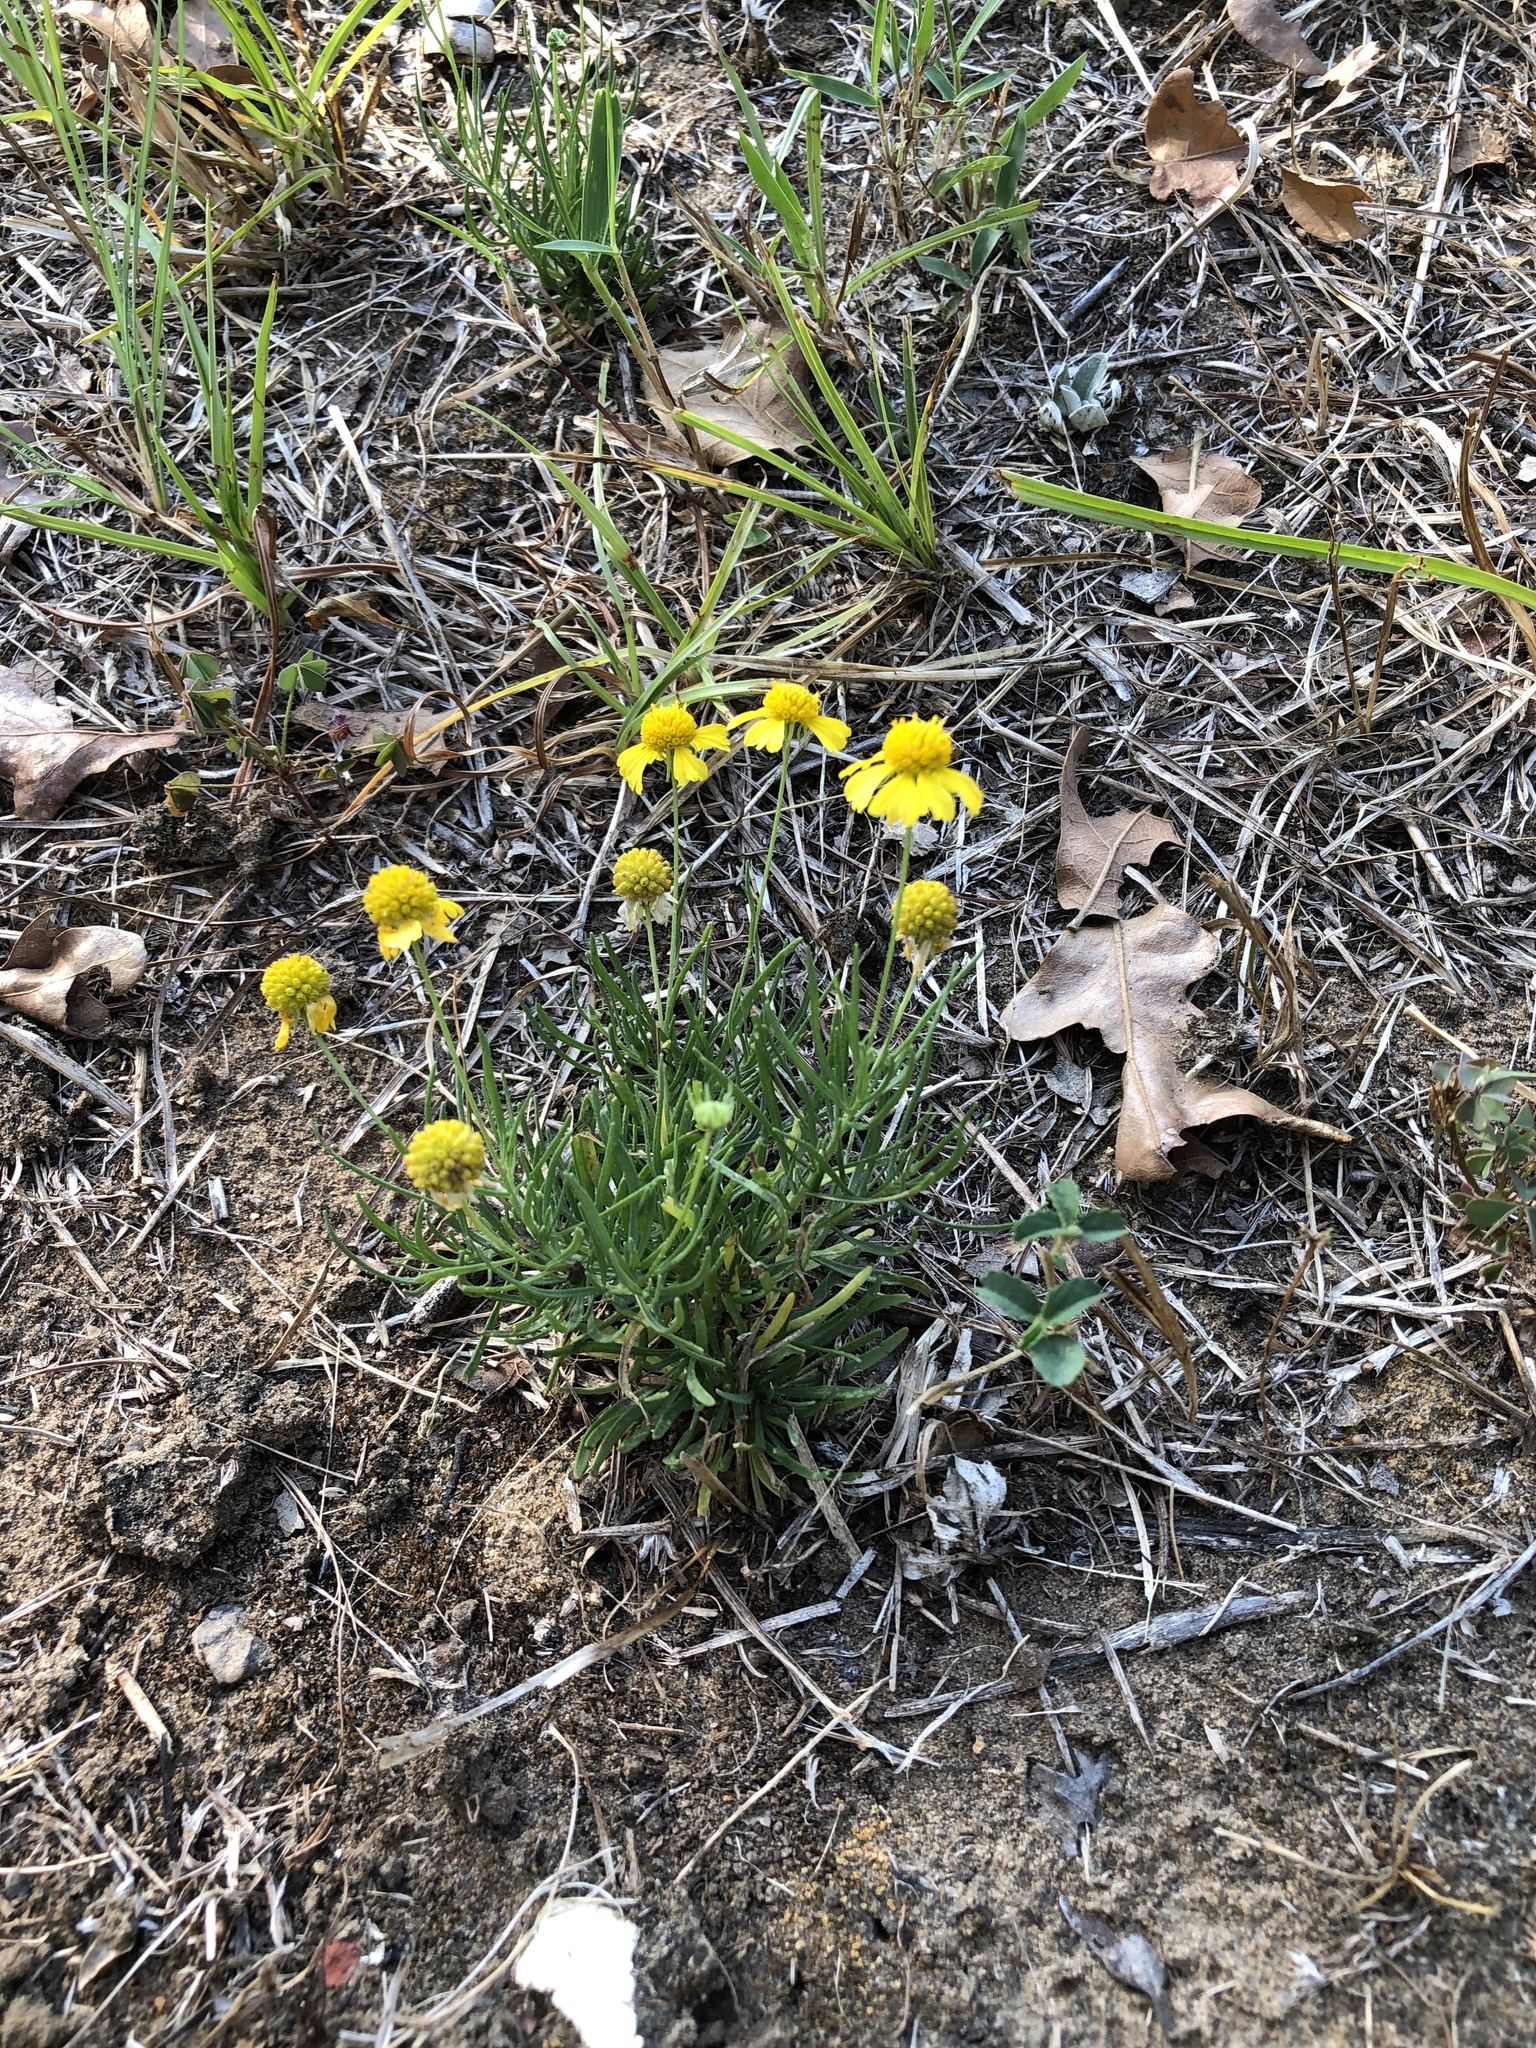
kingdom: Plantae
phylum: Tracheophyta
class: Magnoliopsida
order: Asterales
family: Asteraceae
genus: Helenium
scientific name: Helenium amarum
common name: Bitter sneezeweed
